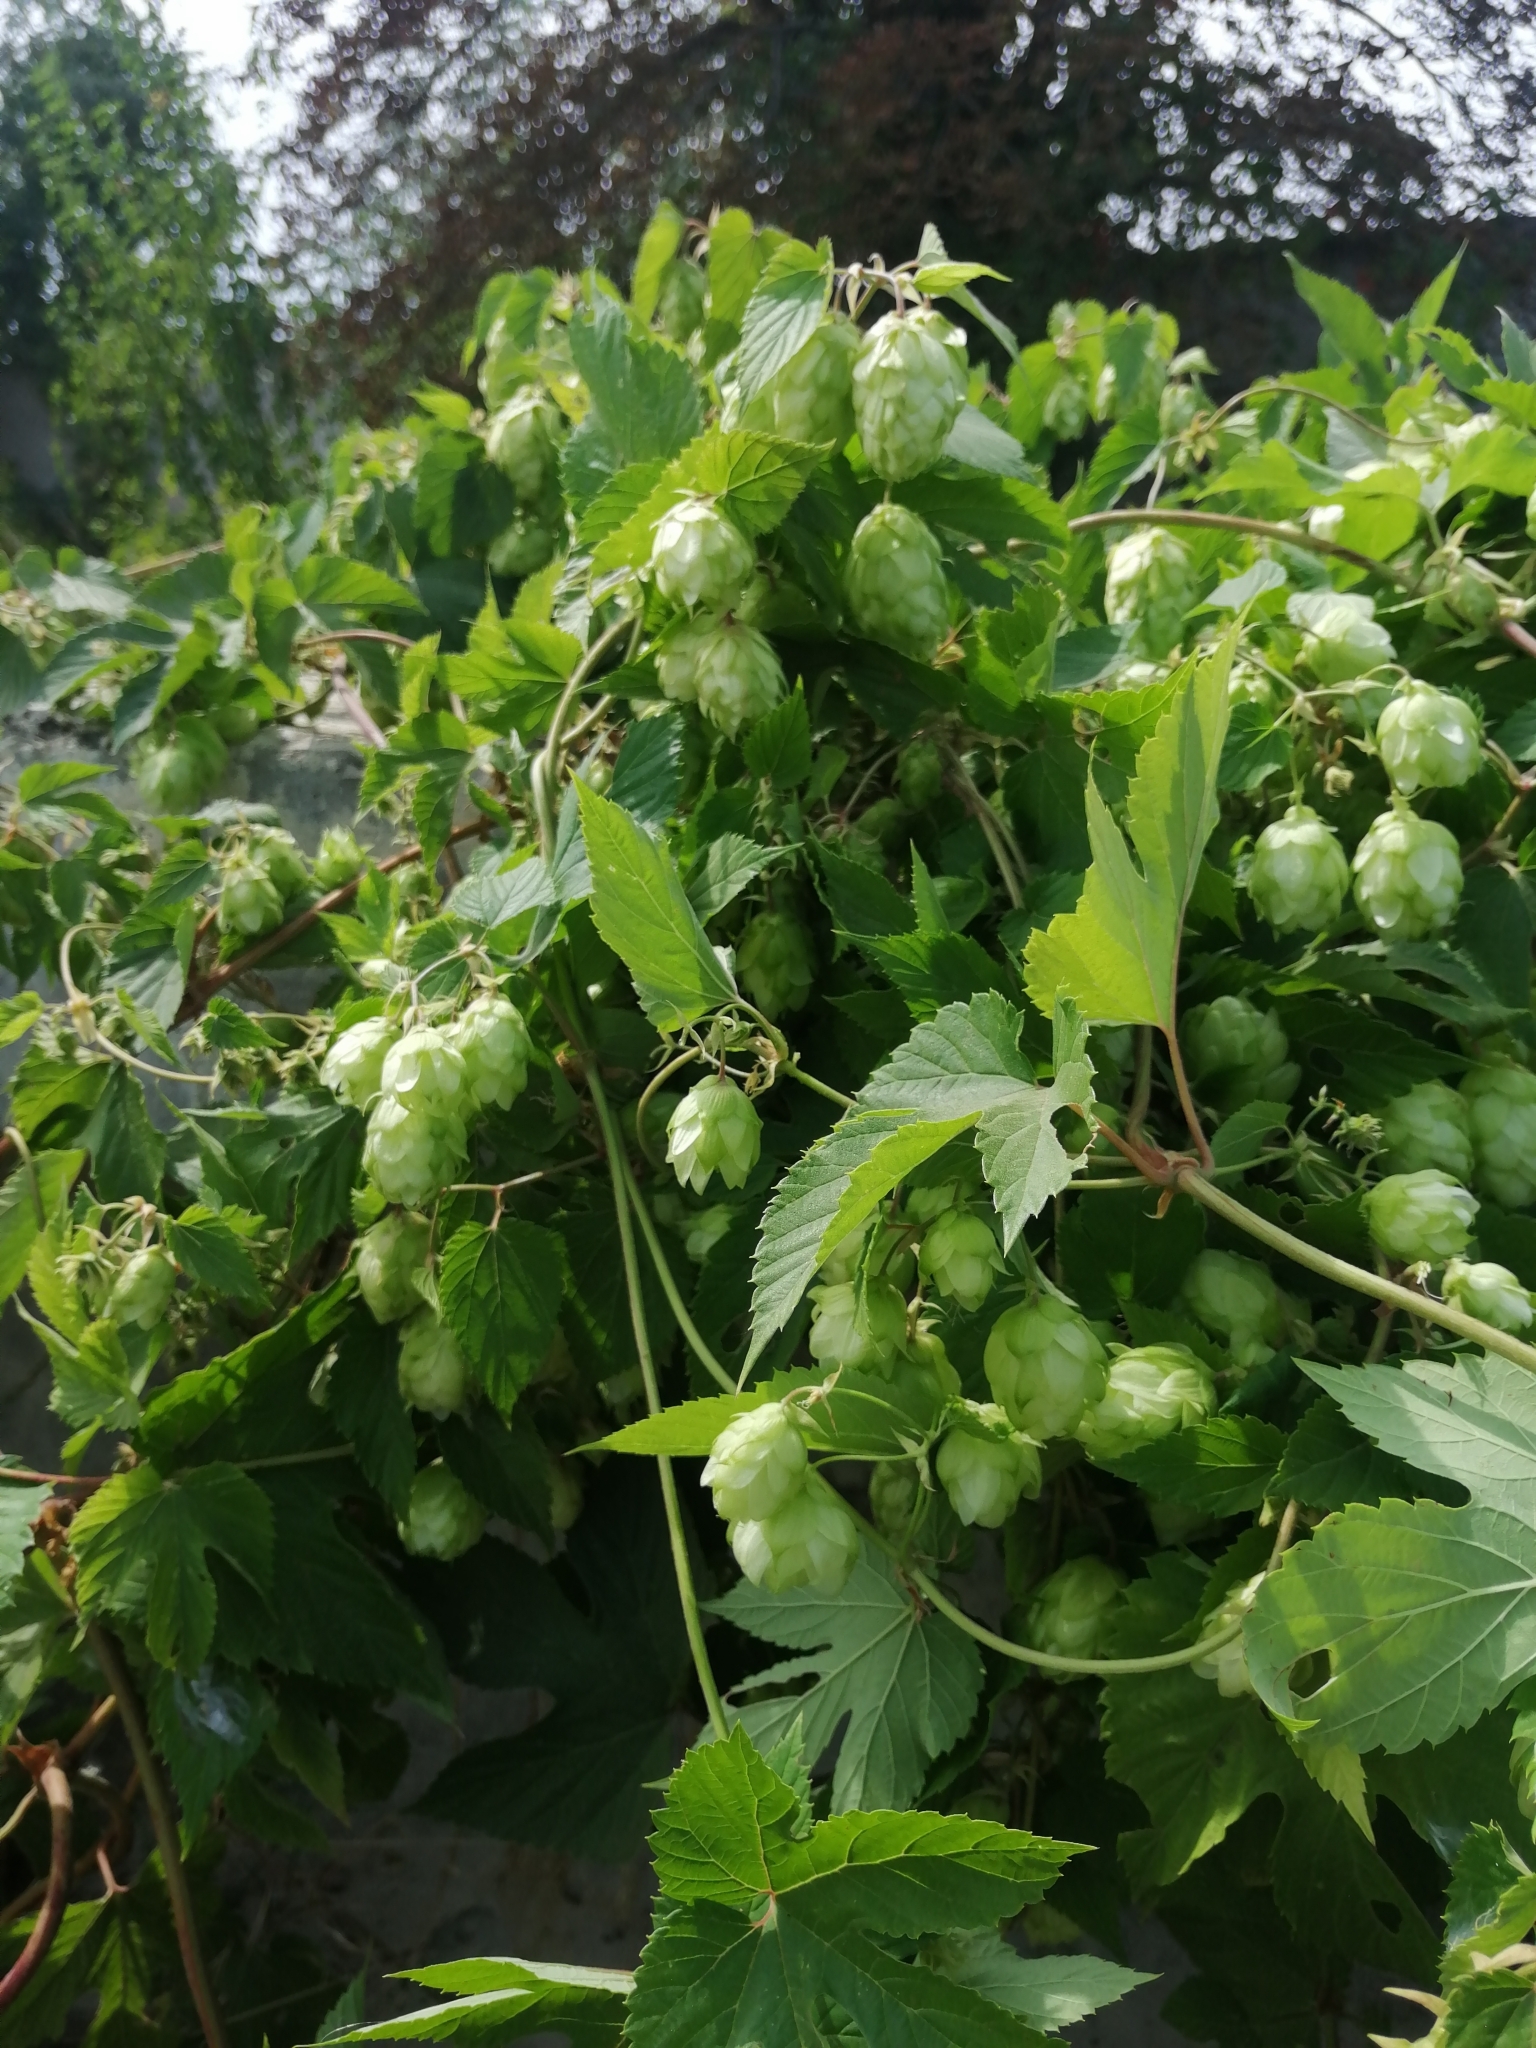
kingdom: Plantae
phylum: Tracheophyta
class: Magnoliopsida
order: Rosales
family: Cannabaceae
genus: Humulus
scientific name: Humulus lupulus
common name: Hop
